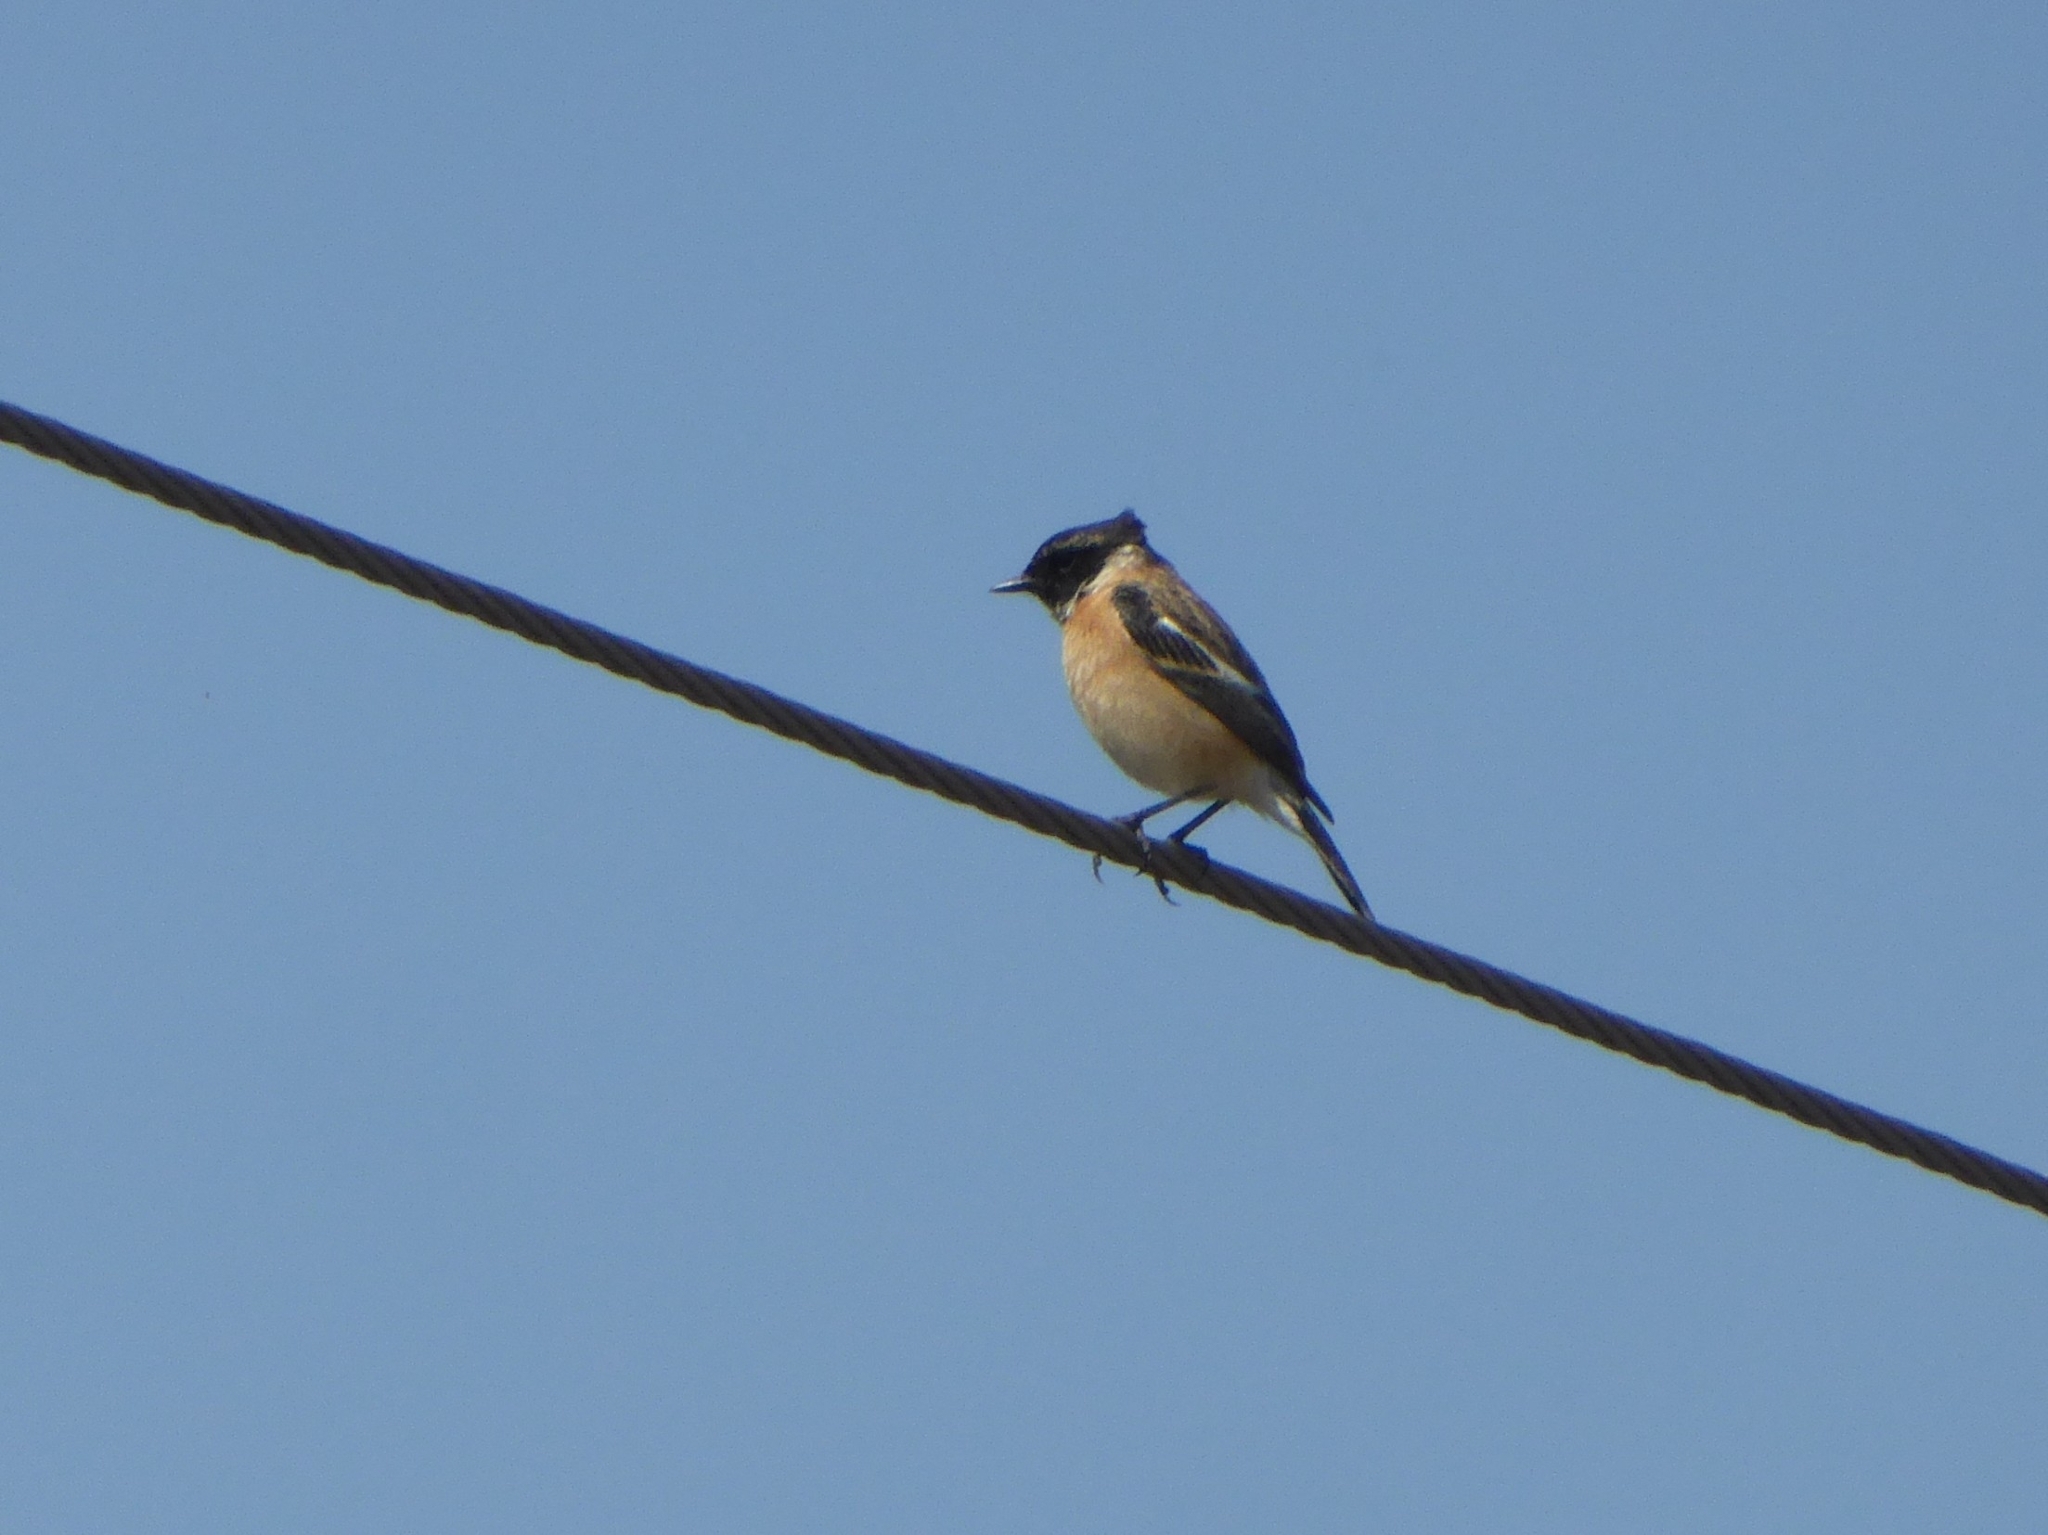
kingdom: Animalia
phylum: Chordata
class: Aves
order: Passeriformes
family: Muscicapidae
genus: Saxicola
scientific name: Saxicola maurus
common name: Siberian stonechat
